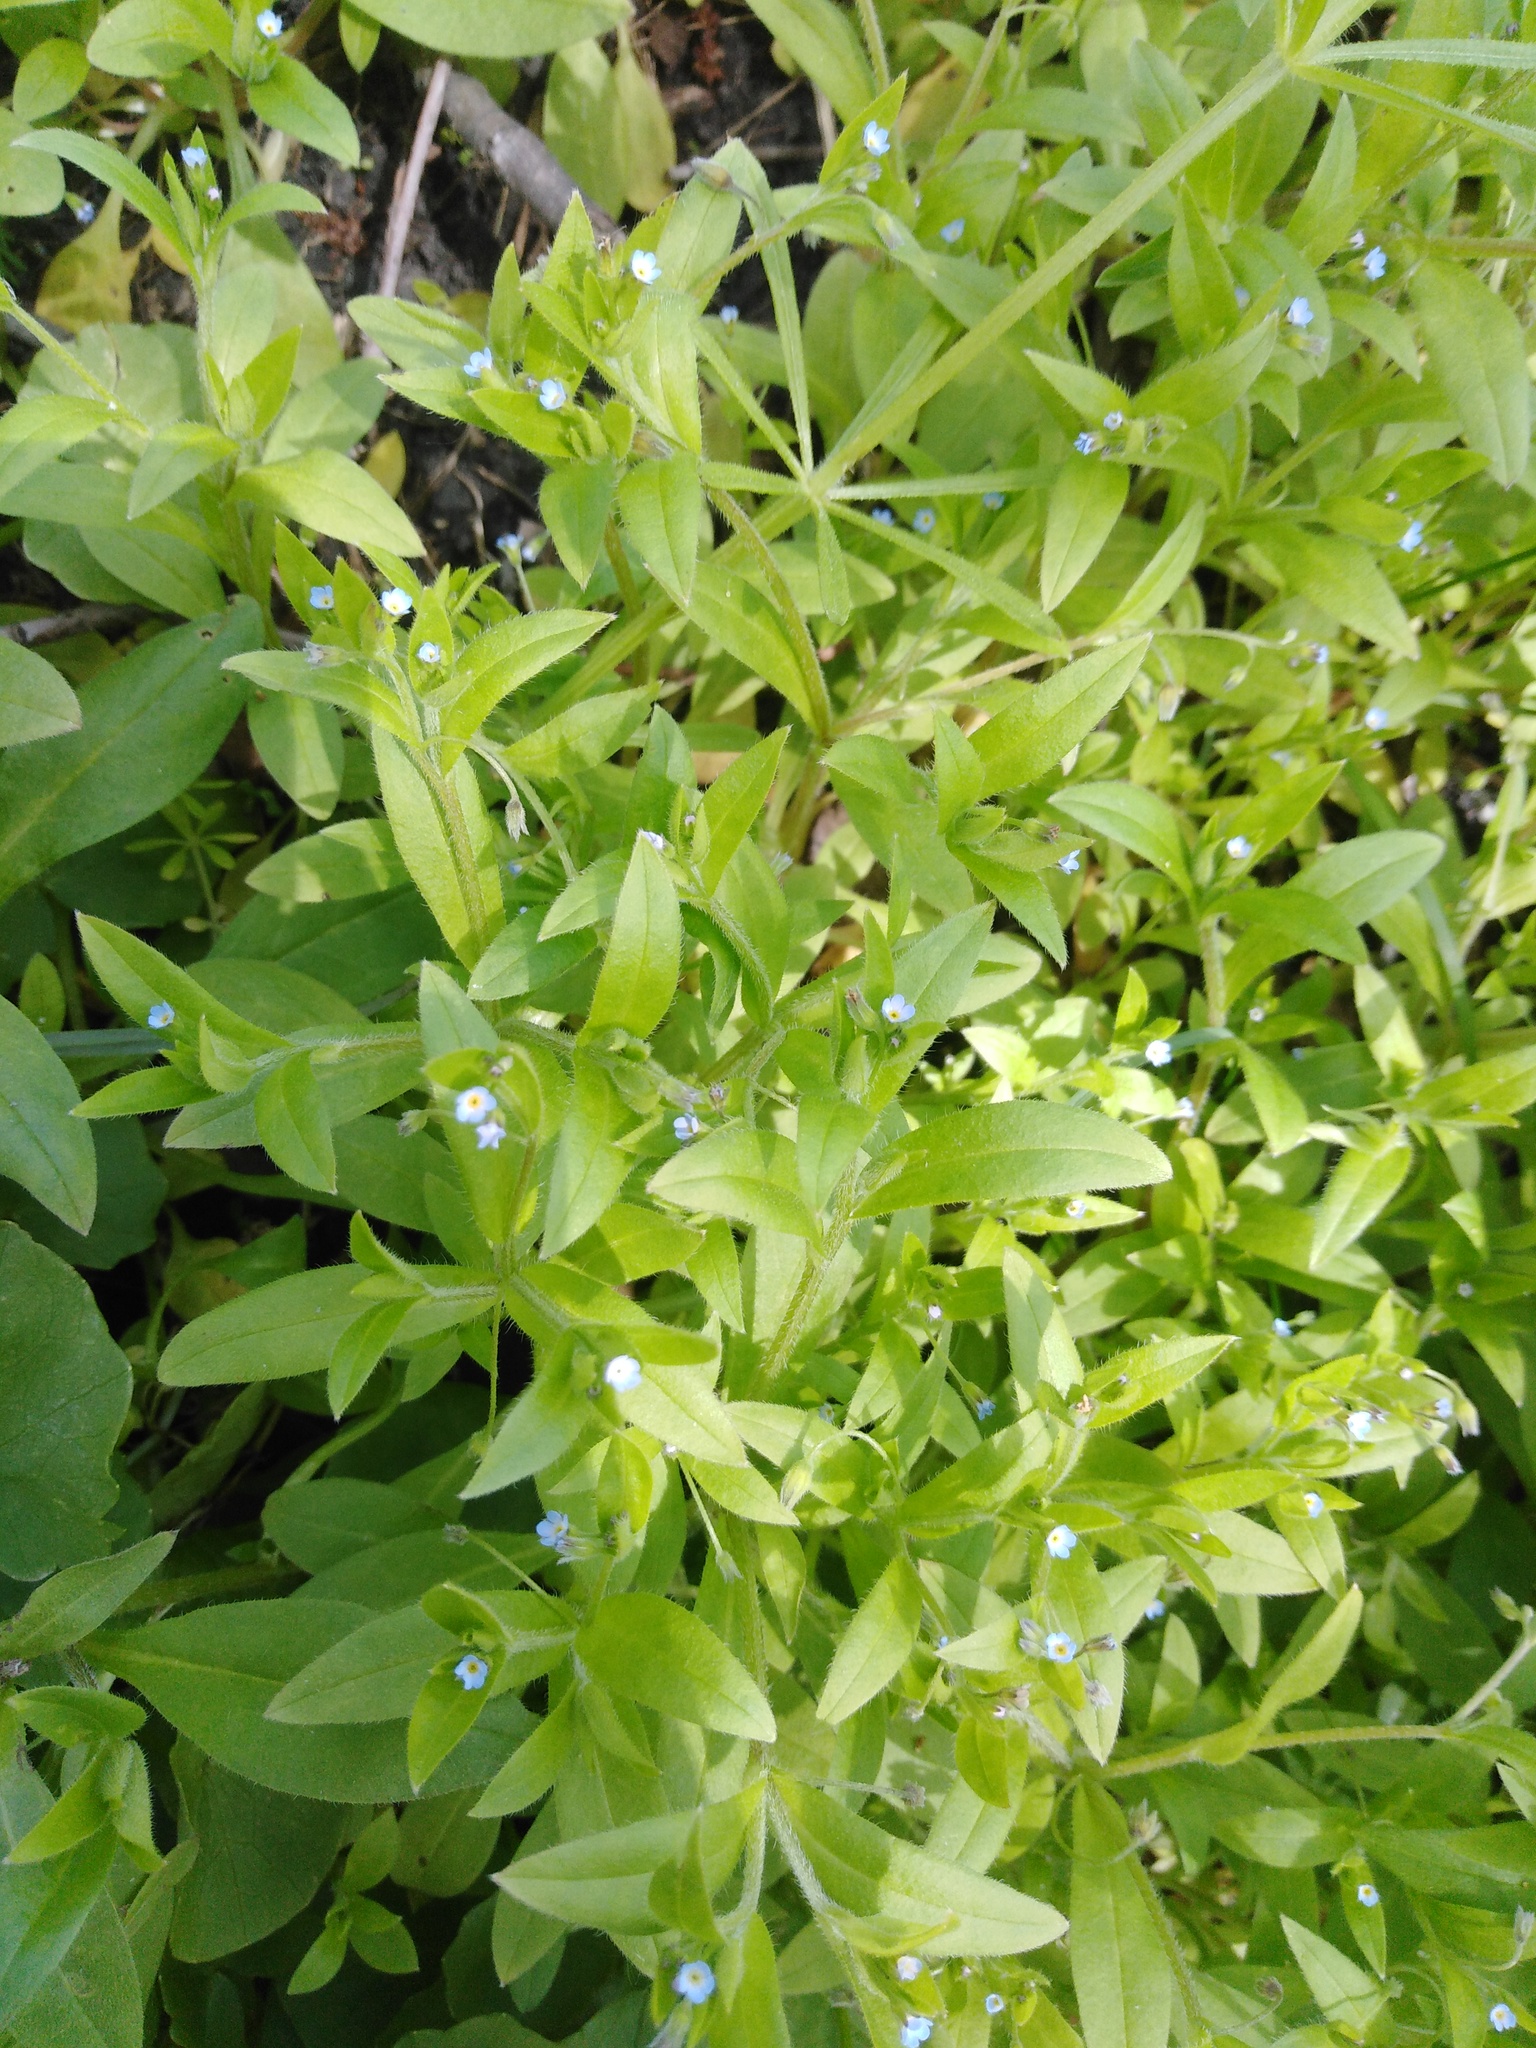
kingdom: Plantae
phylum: Tracheophyta
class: Magnoliopsida
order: Boraginales
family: Boraginaceae
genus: Myosotis
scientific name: Myosotis sparsiflora
